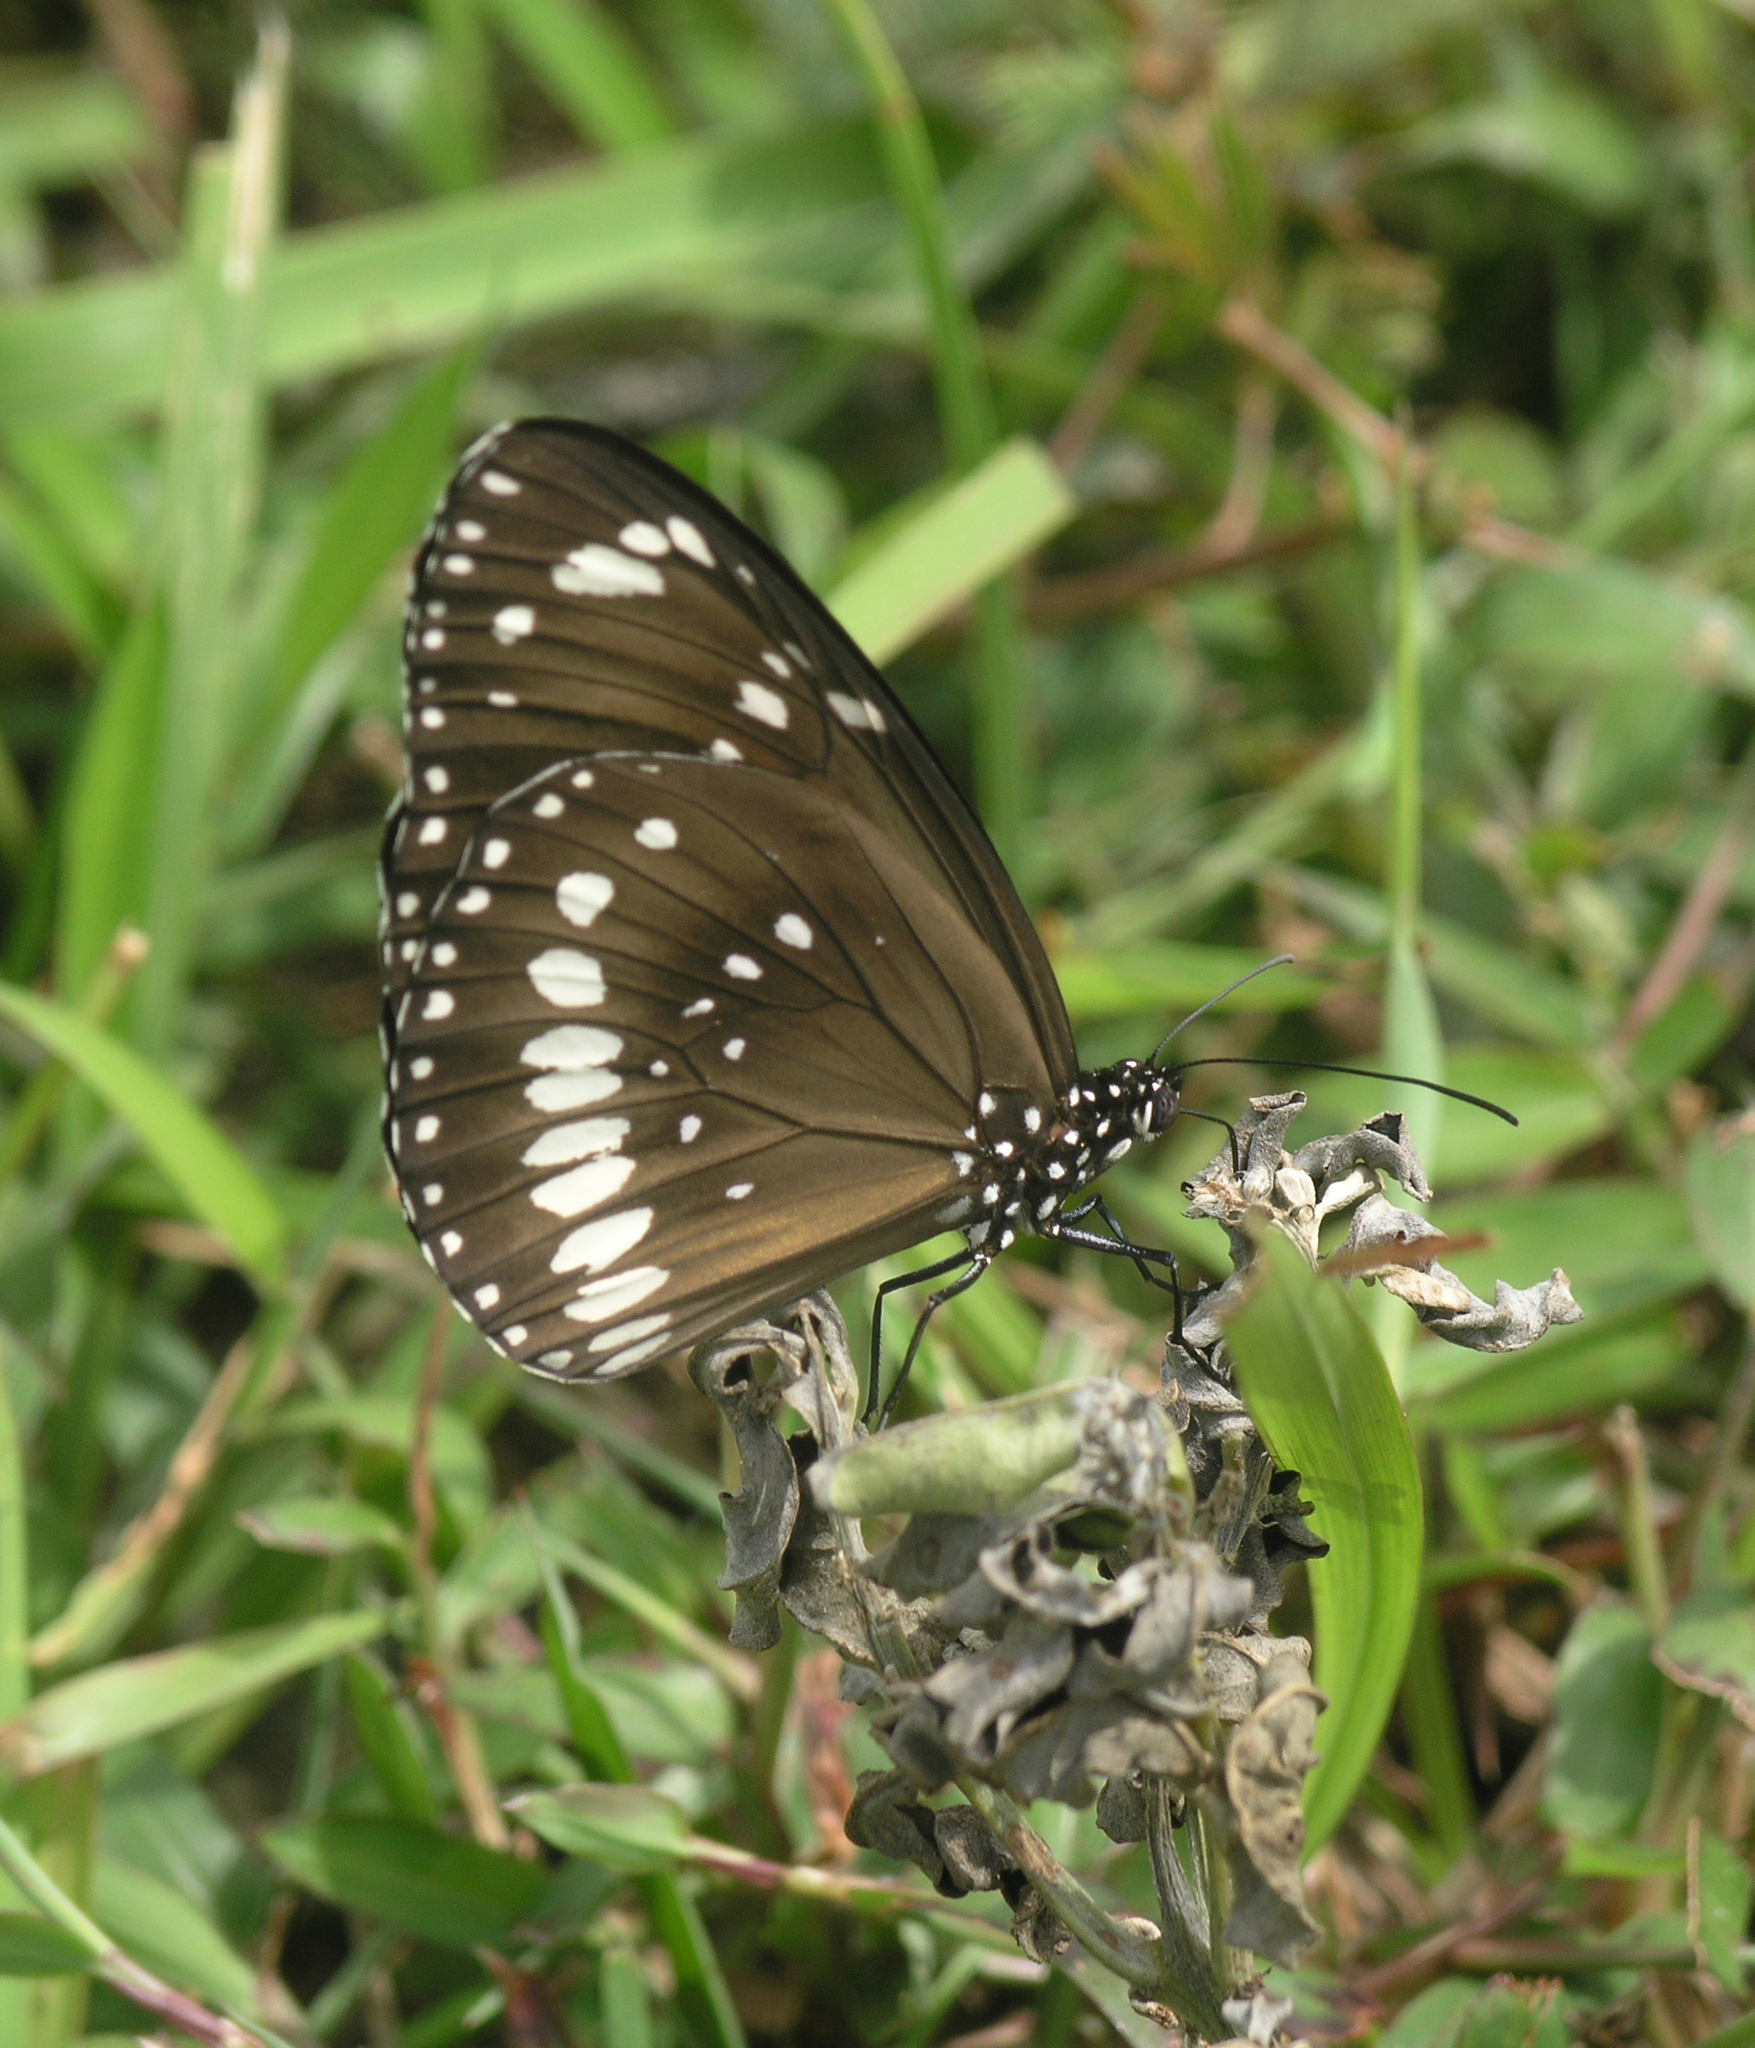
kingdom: Animalia
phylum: Arthropoda
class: Insecta
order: Lepidoptera
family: Nymphalidae
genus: Euploea
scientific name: Euploea core
